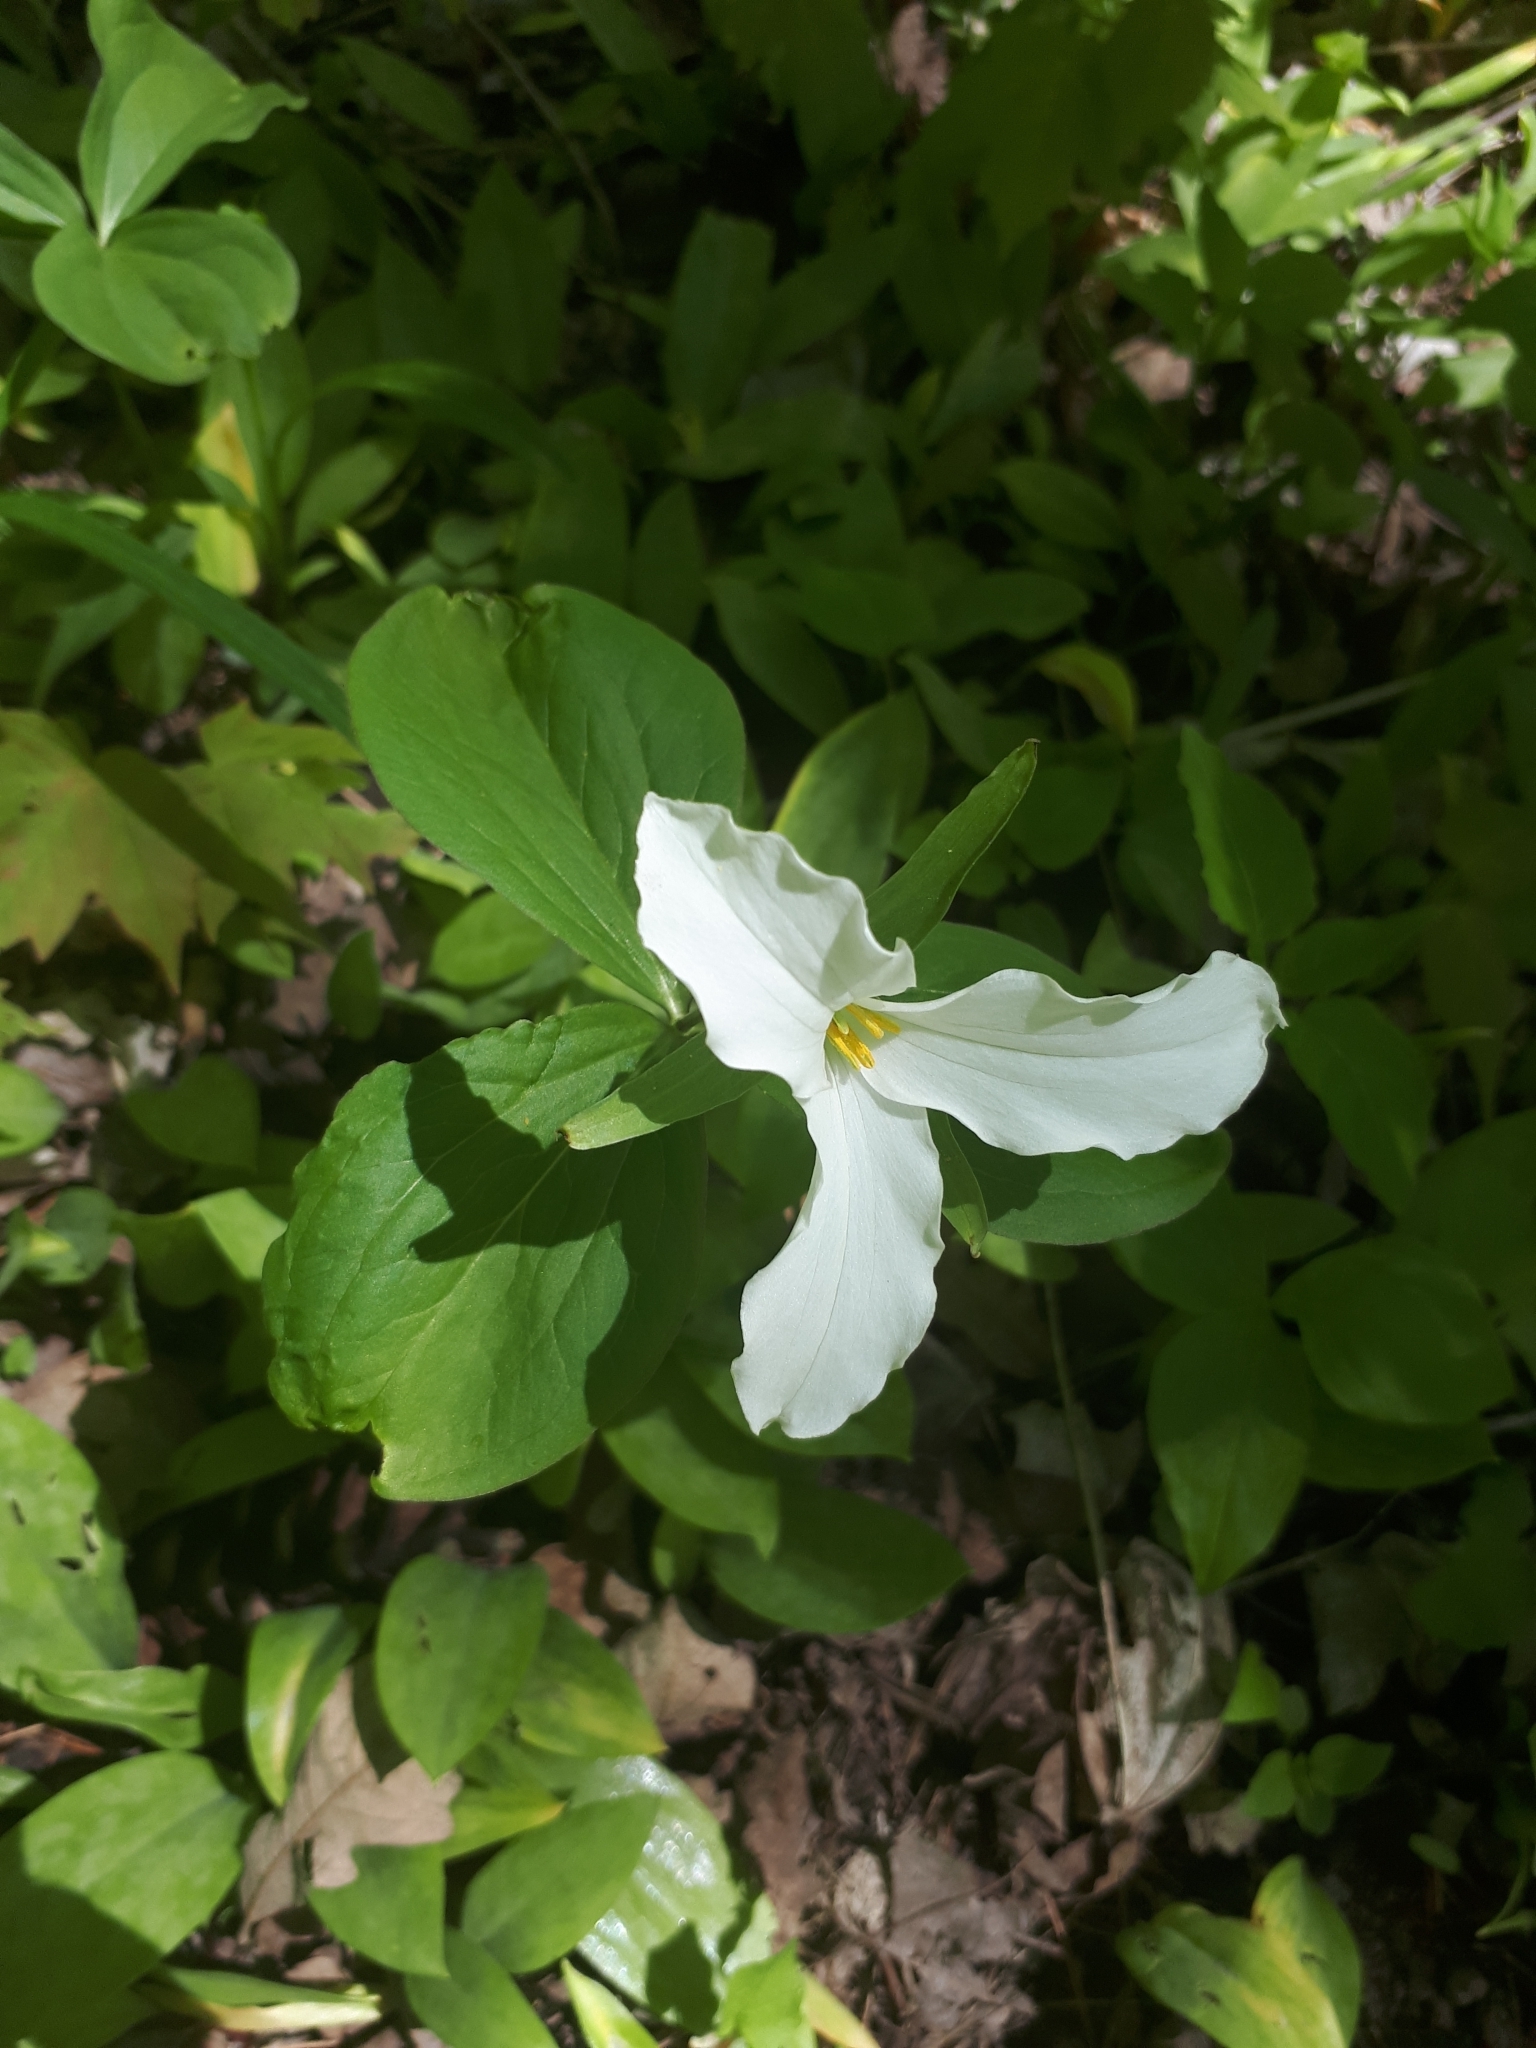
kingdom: Plantae
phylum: Tracheophyta
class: Liliopsida
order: Liliales
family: Melanthiaceae
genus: Trillium
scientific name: Trillium grandiflorum
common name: Great white trillium
